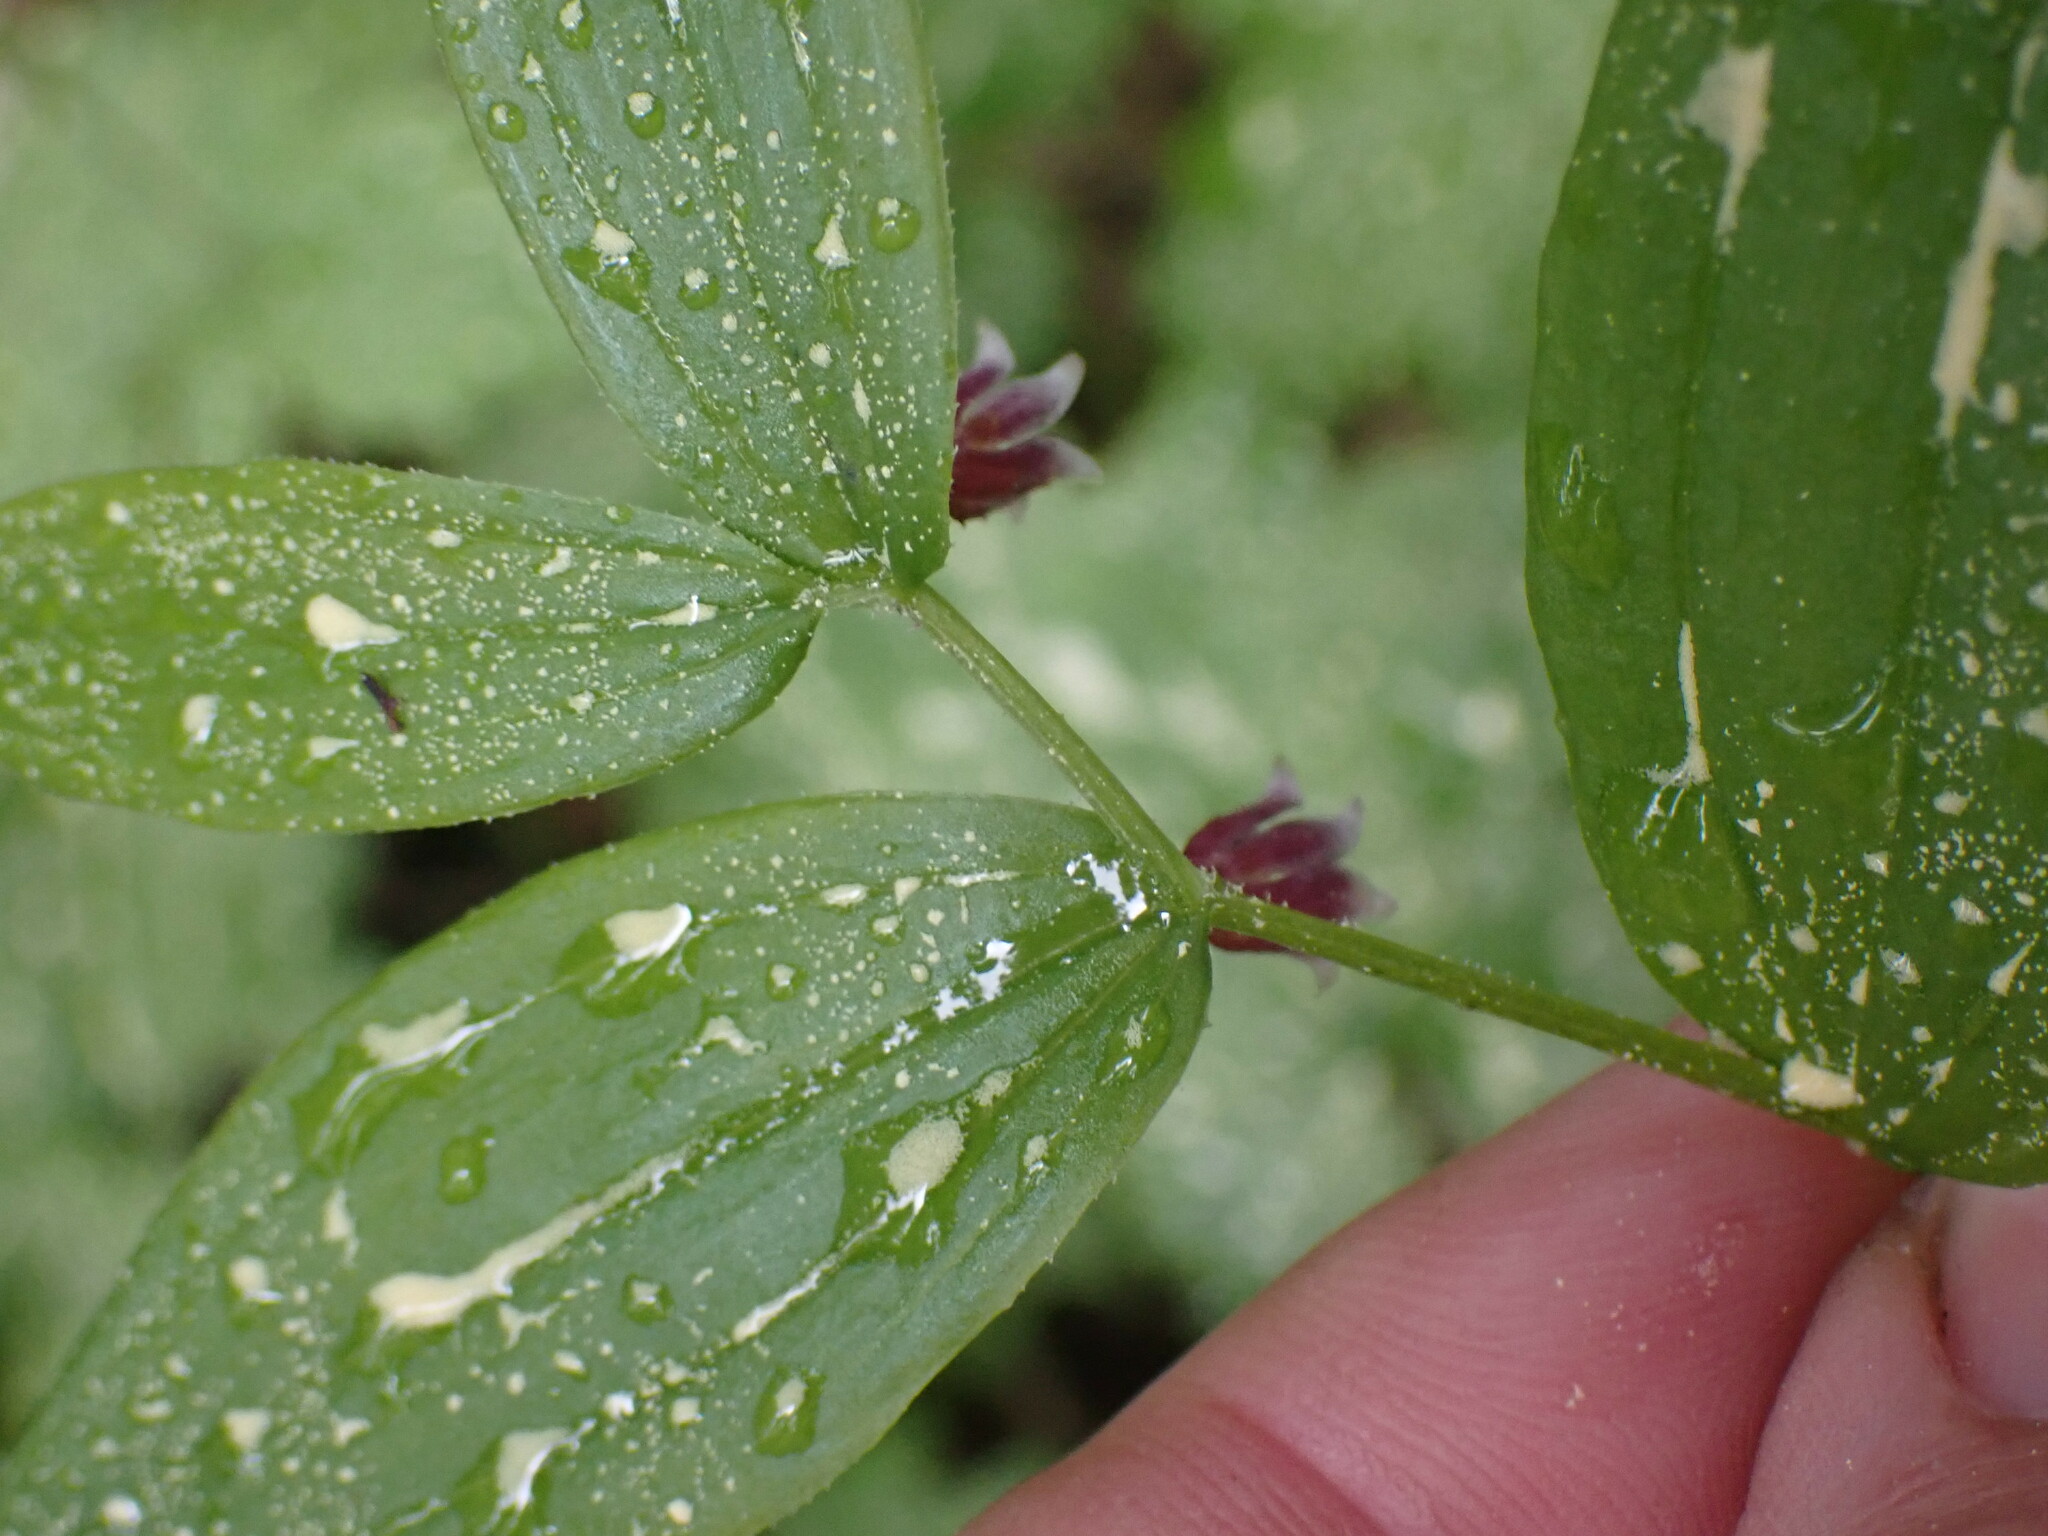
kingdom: Plantae
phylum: Tracheophyta
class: Liliopsida
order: Liliales
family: Liliaceae
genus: Streptopus
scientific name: Streptopus lanceolatus
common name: Rose mandarin
